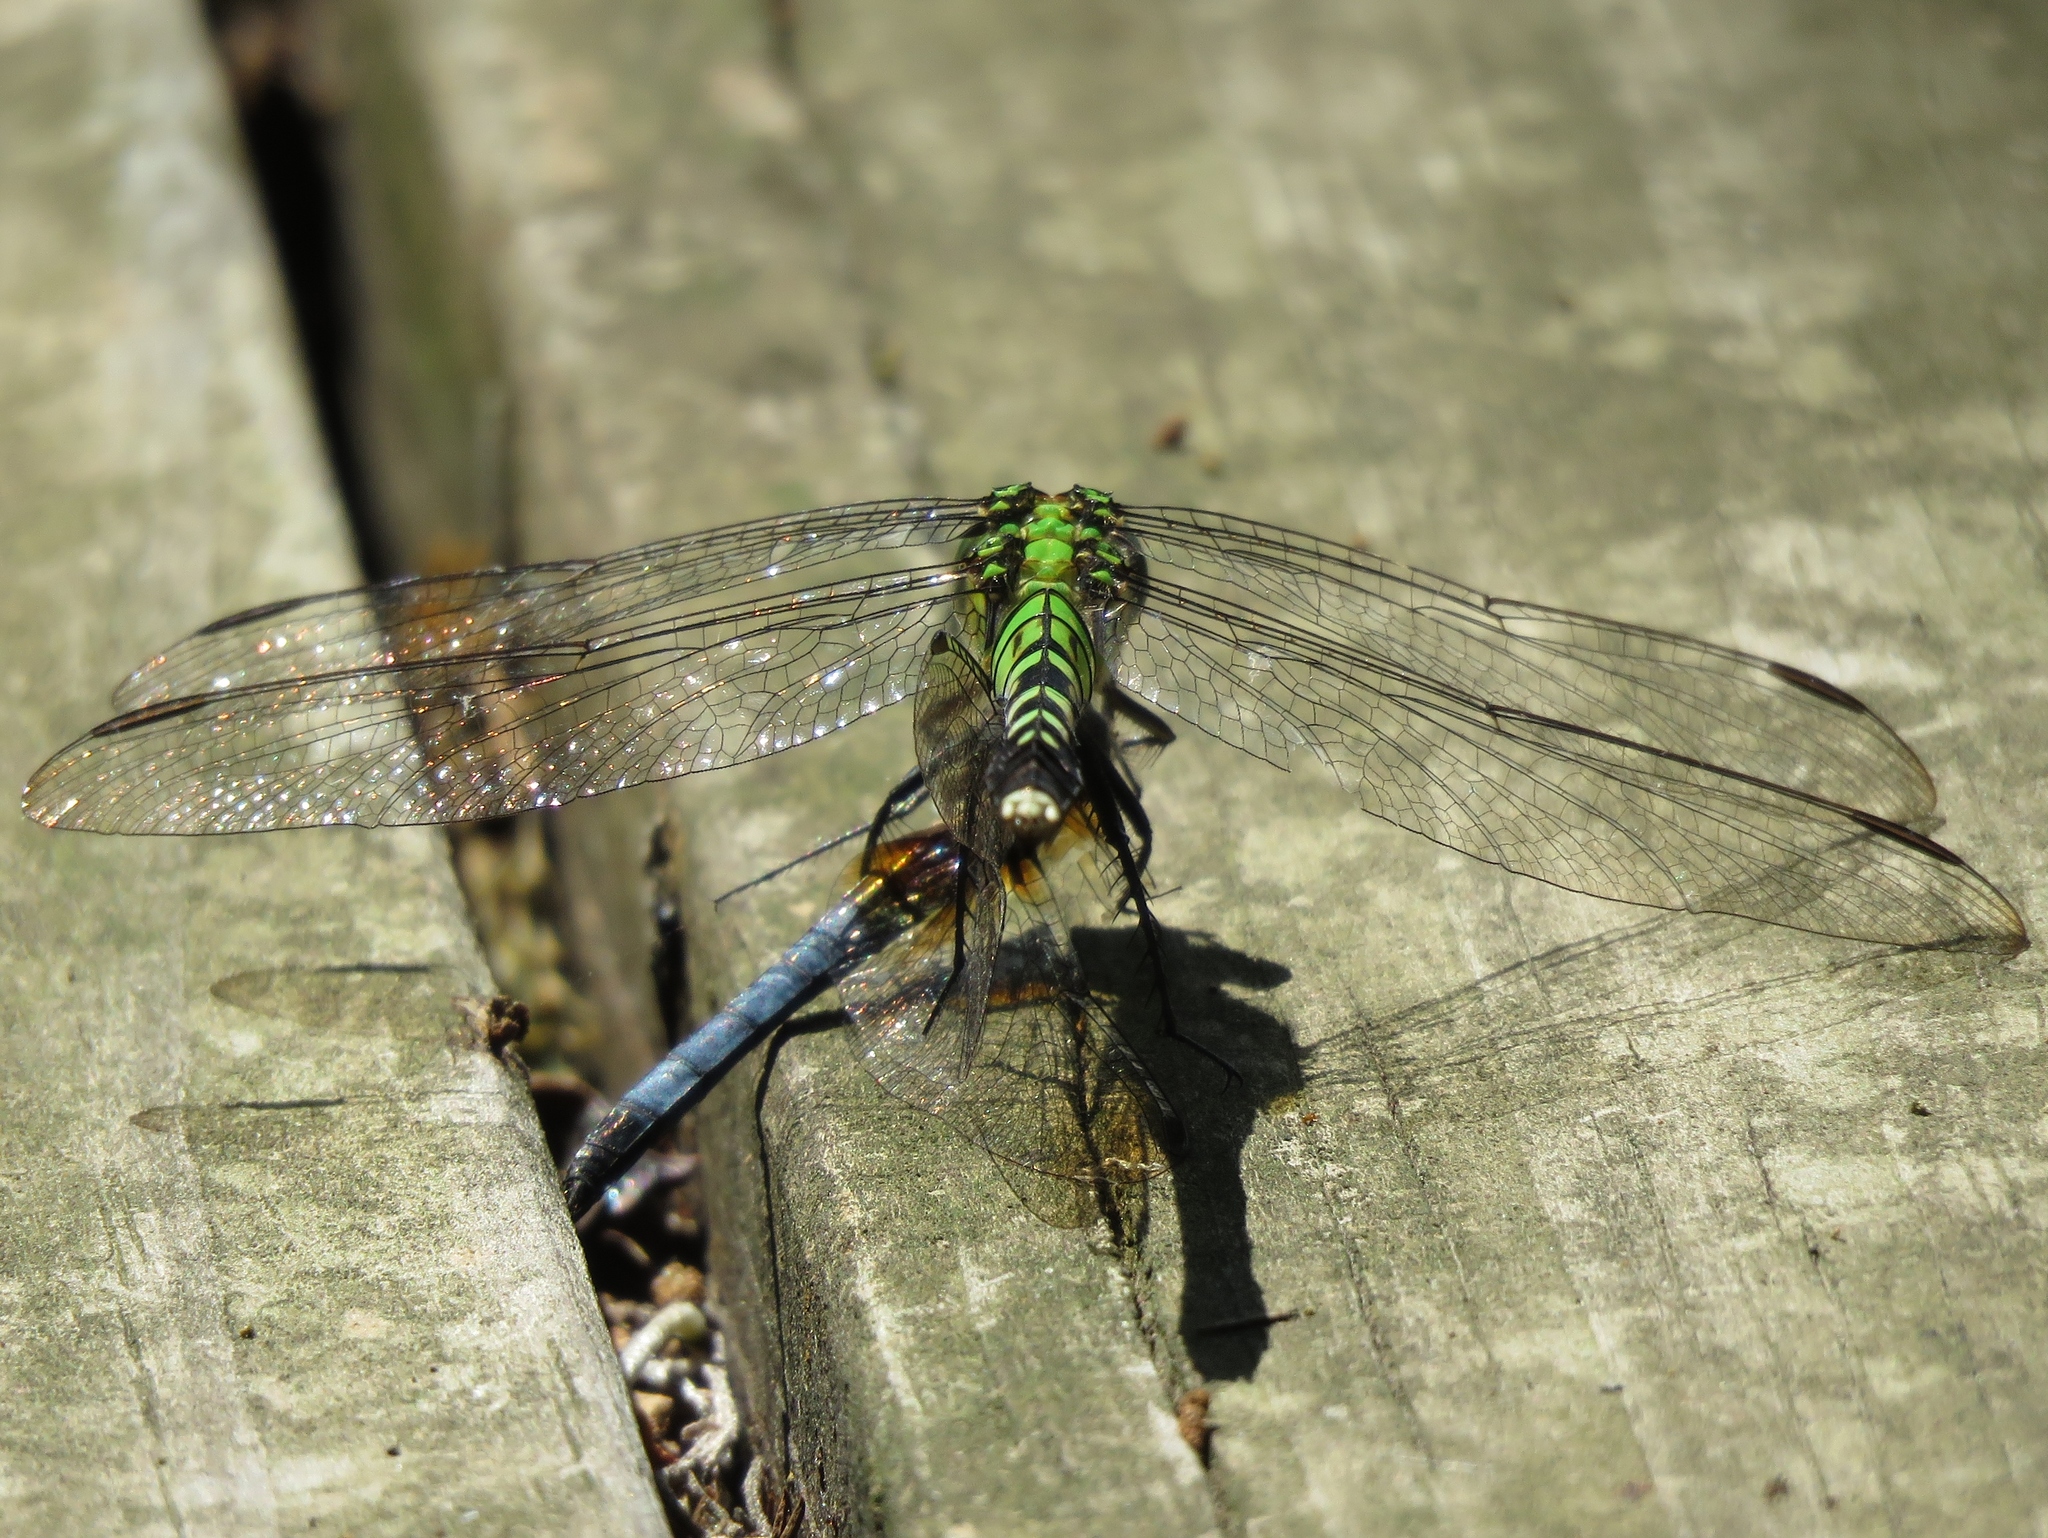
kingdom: Animalia
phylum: Arthropoda
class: Insecta
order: Odonata
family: Libellulidae
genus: Erythemis
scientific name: Erythemis simplicicollis
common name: Eastern pondhawk
